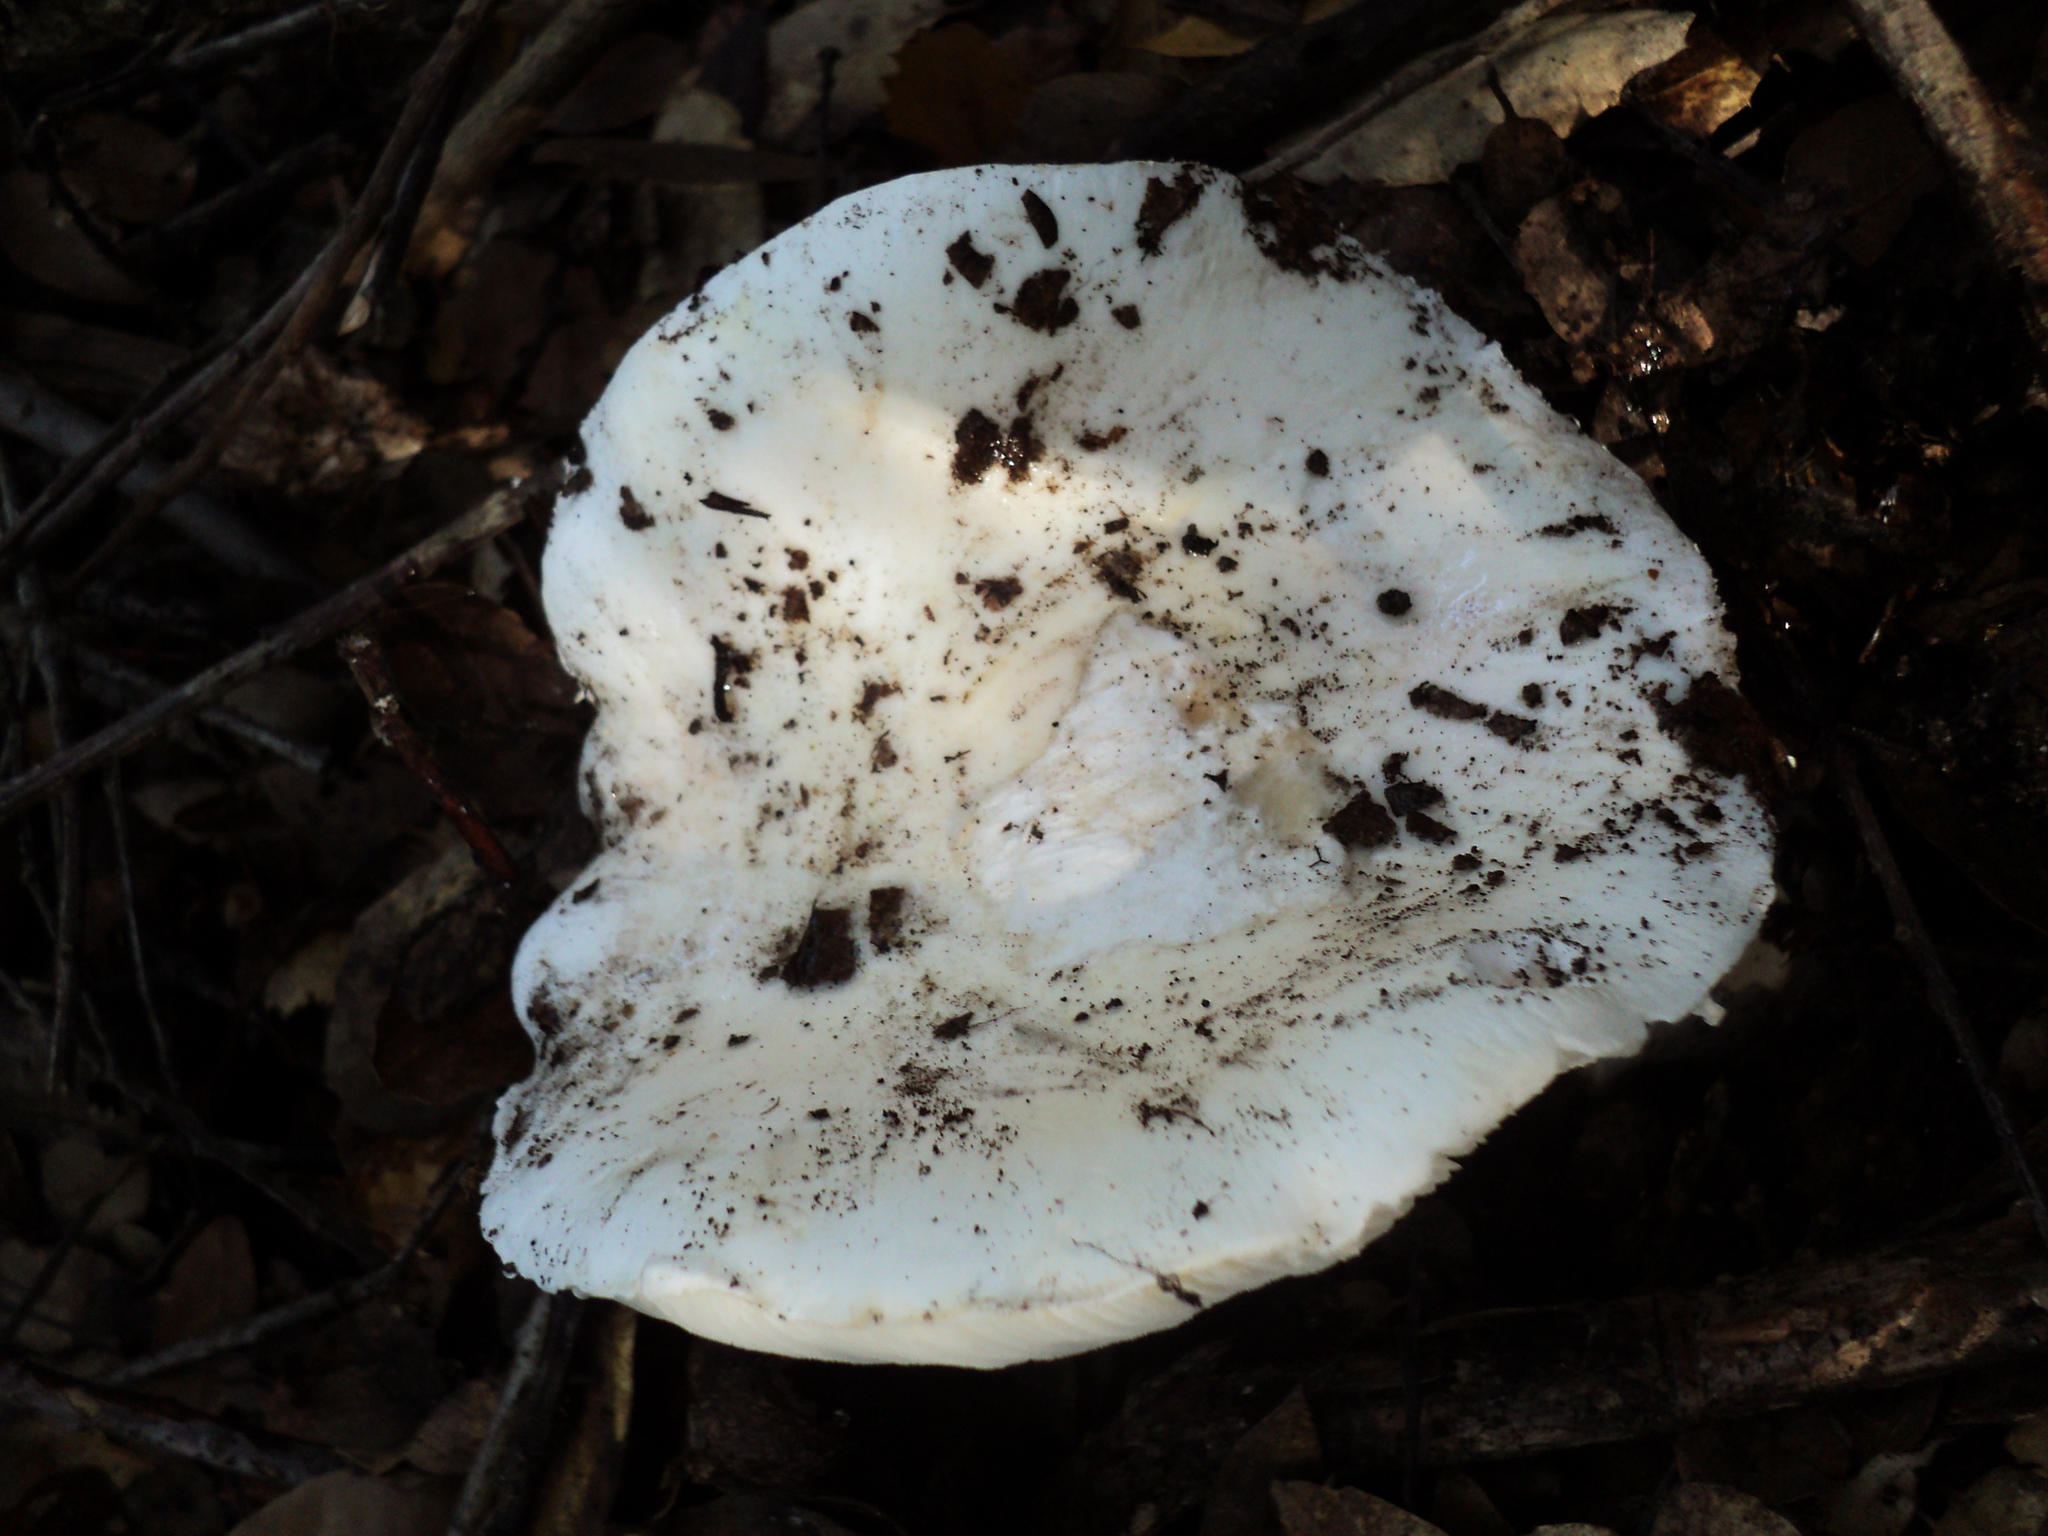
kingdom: Fungi
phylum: Basidiomycota
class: Agaricomycetes
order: Agaricales
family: Amanitaceae
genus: Amanita
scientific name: Amanita ocreata
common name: Western destroying angel
